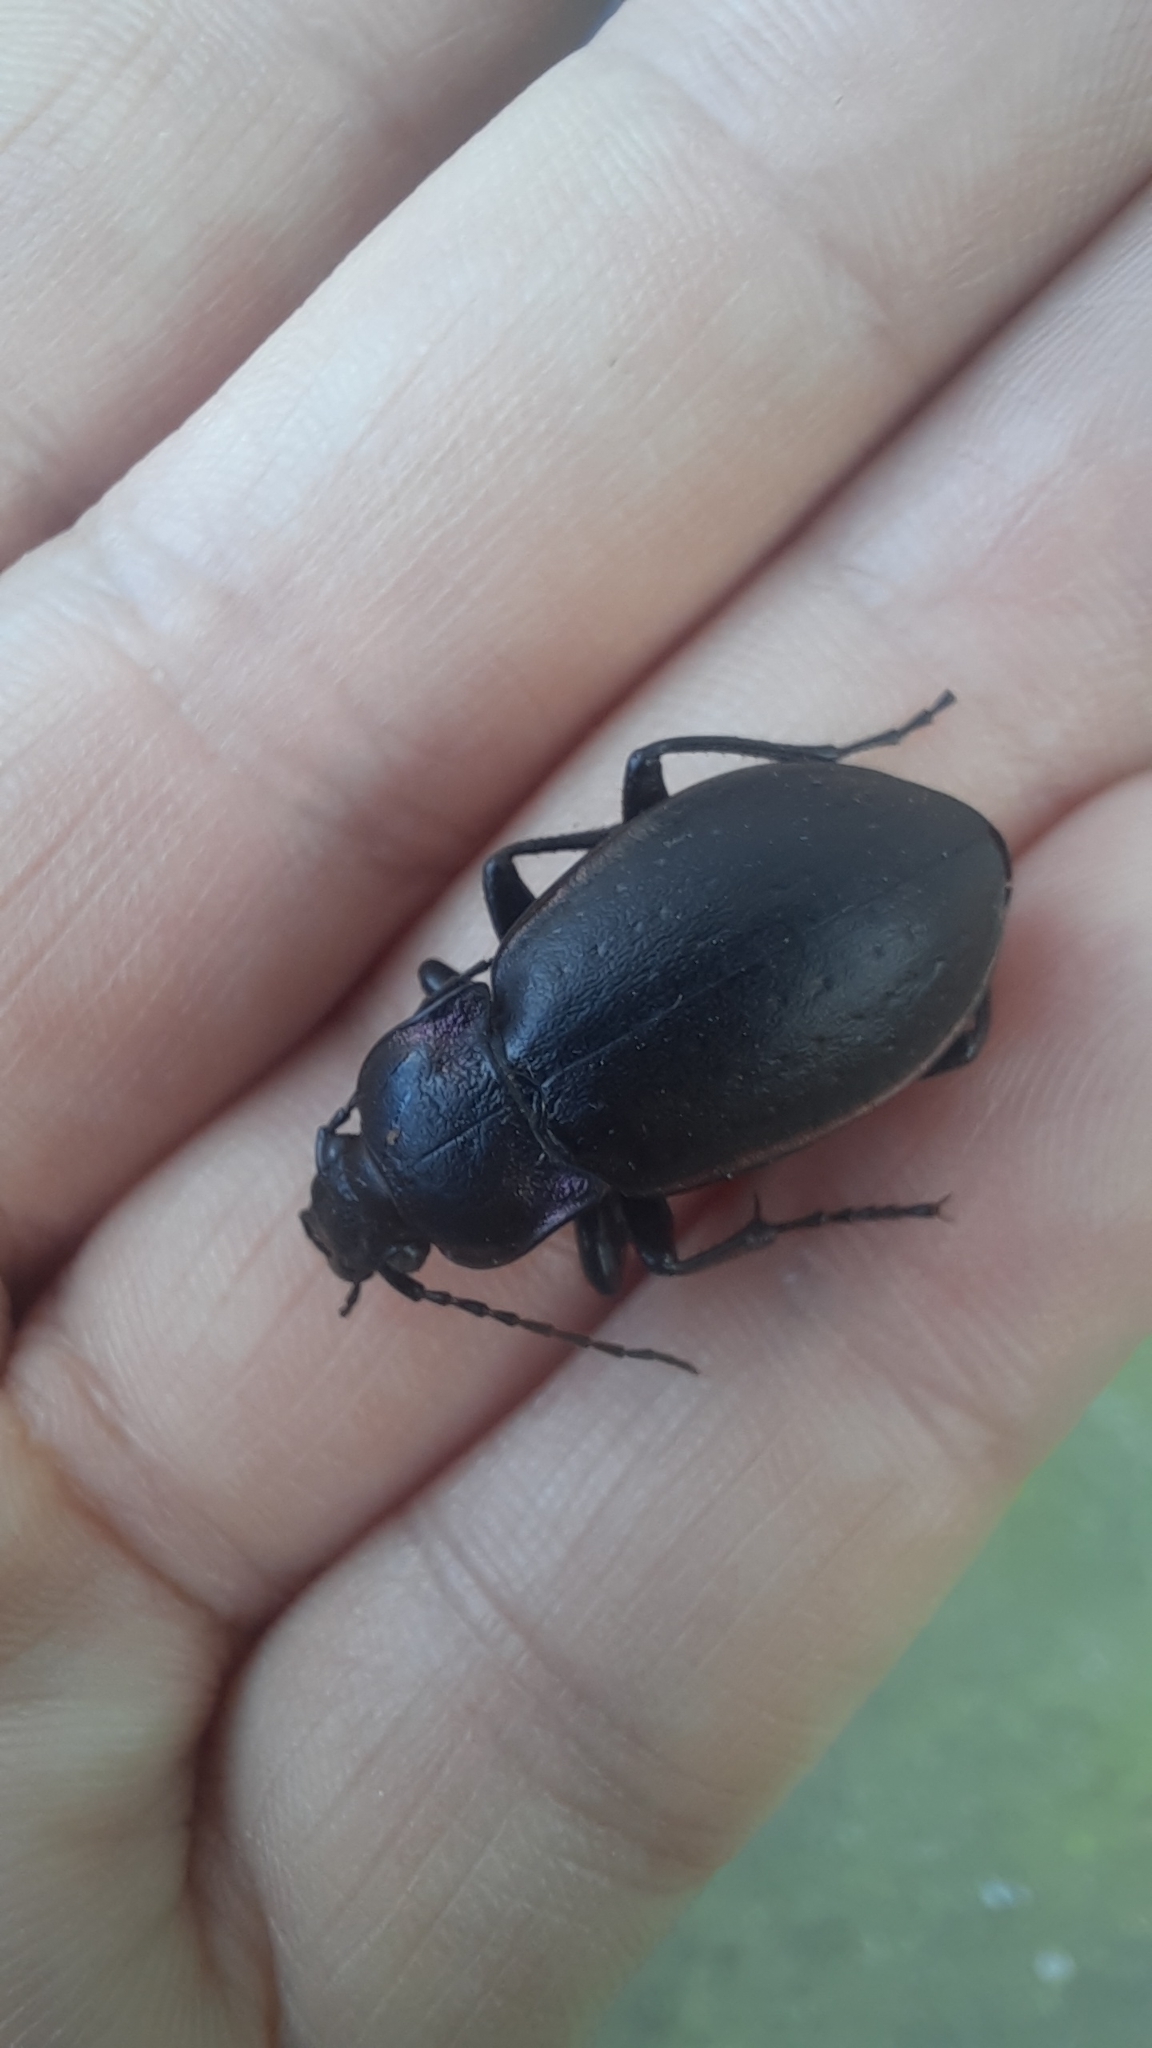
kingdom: Animalia
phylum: Arthropoda
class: Insecta
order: Coleoptera
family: Carabidae
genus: Carabus
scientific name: Carabus nemoralis
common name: European ground beetle
